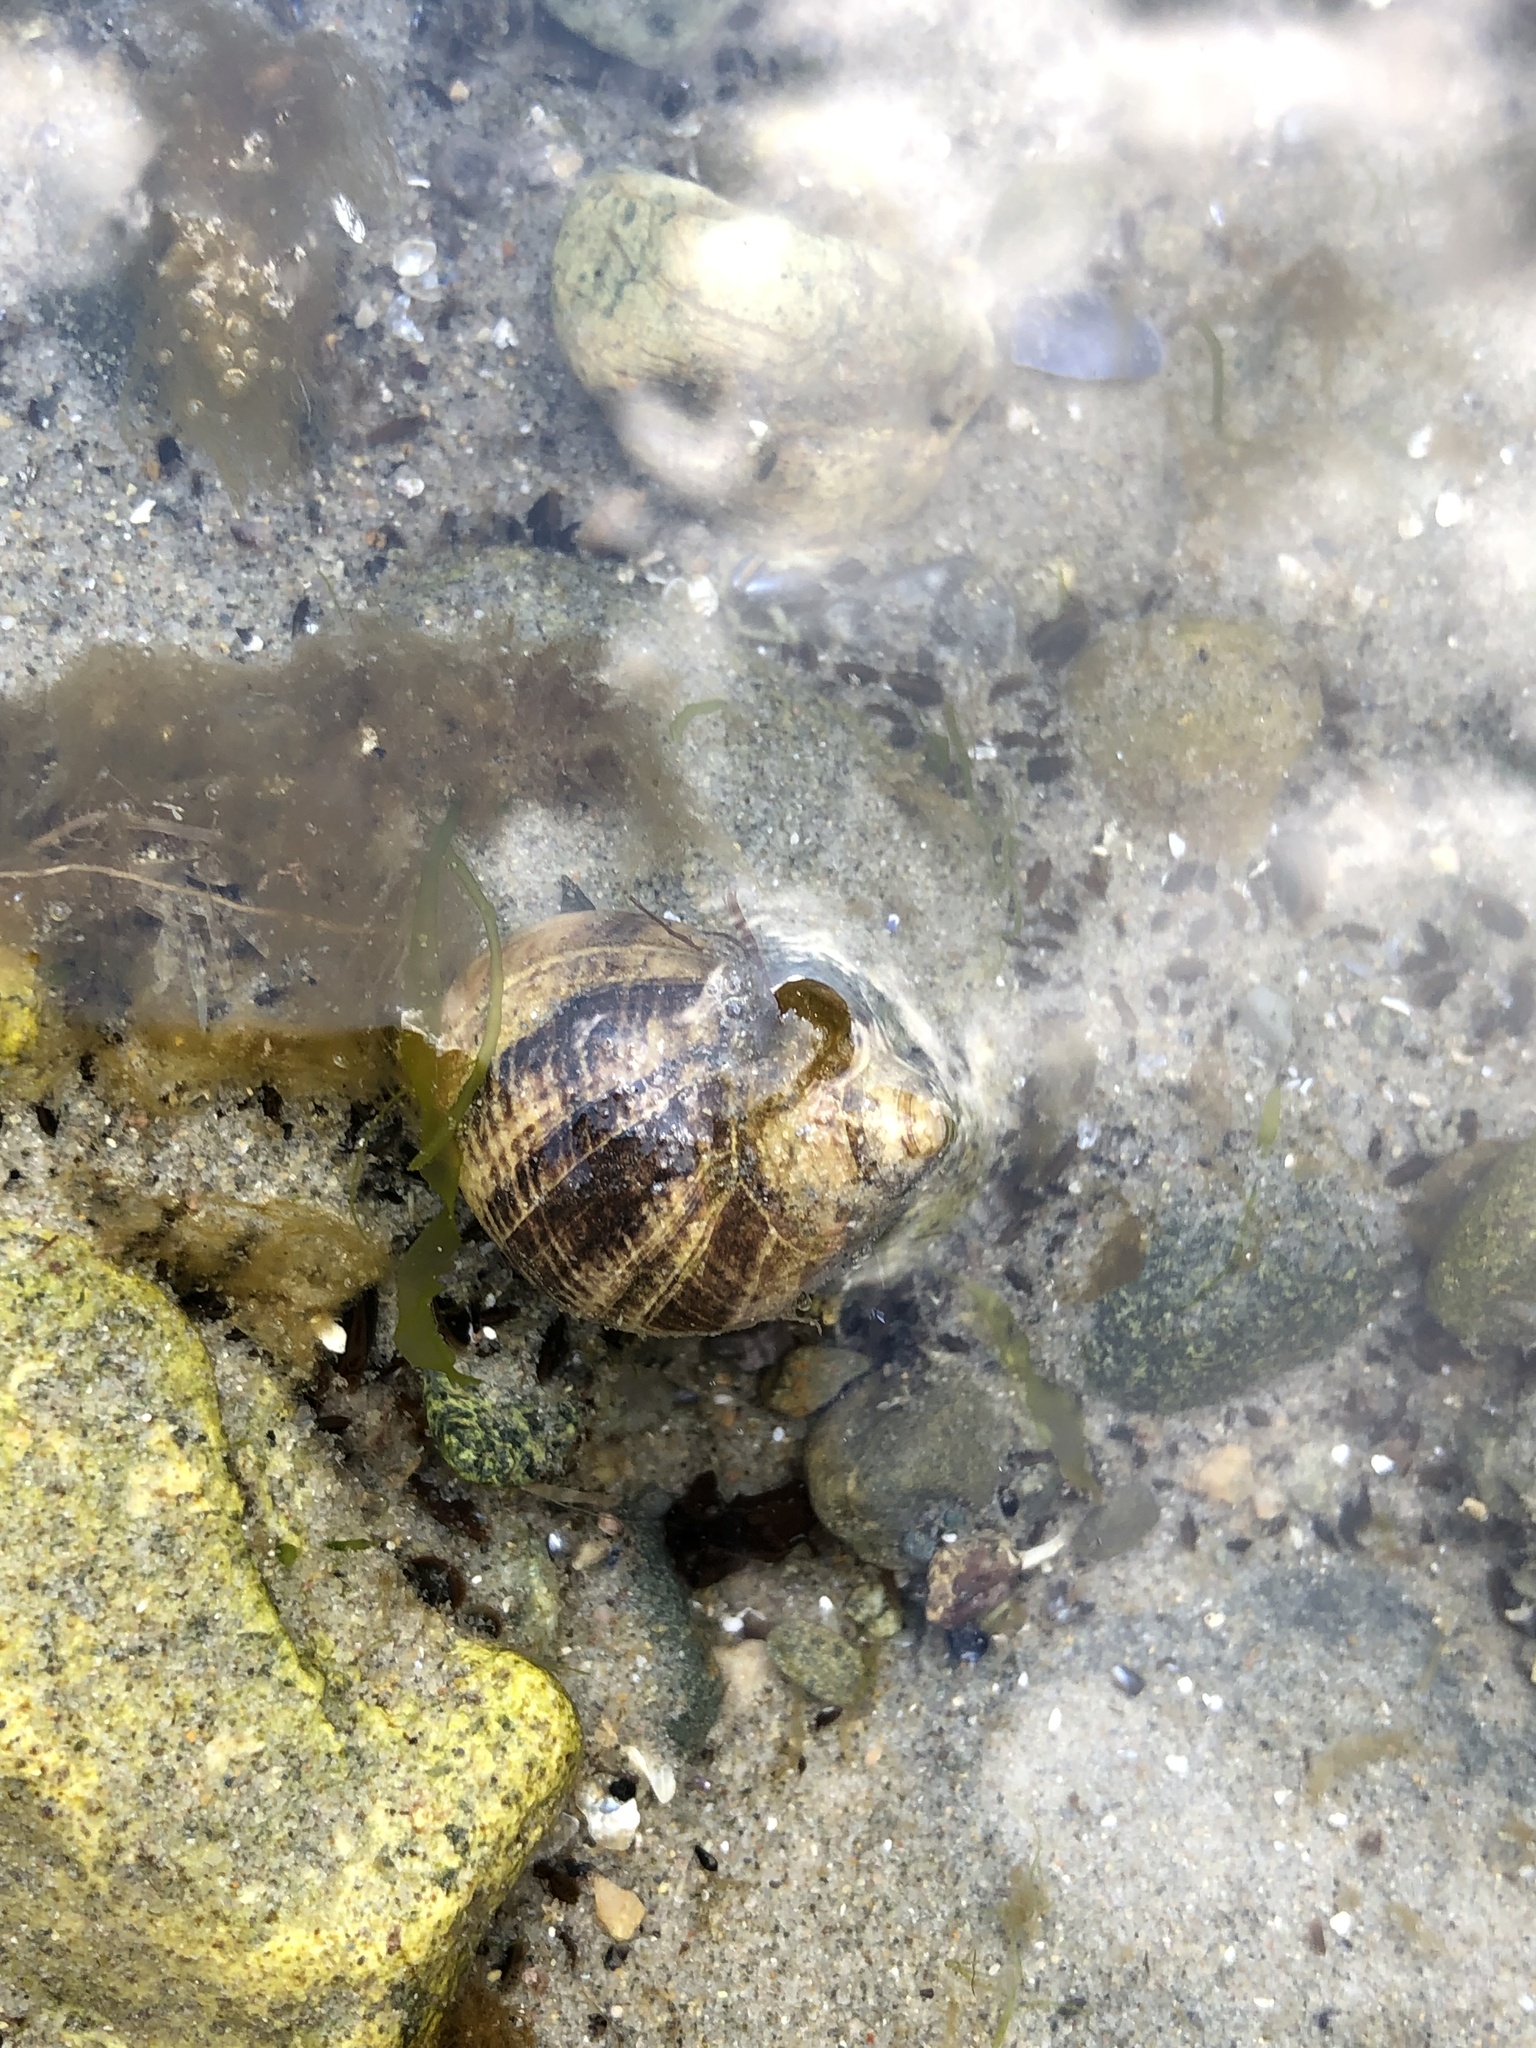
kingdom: Animalia
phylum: Mollusca
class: Gastropoda
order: Littorinimorpha
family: Littorinidae
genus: Littorina
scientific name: Littorina littorea
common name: Common periwinkle
